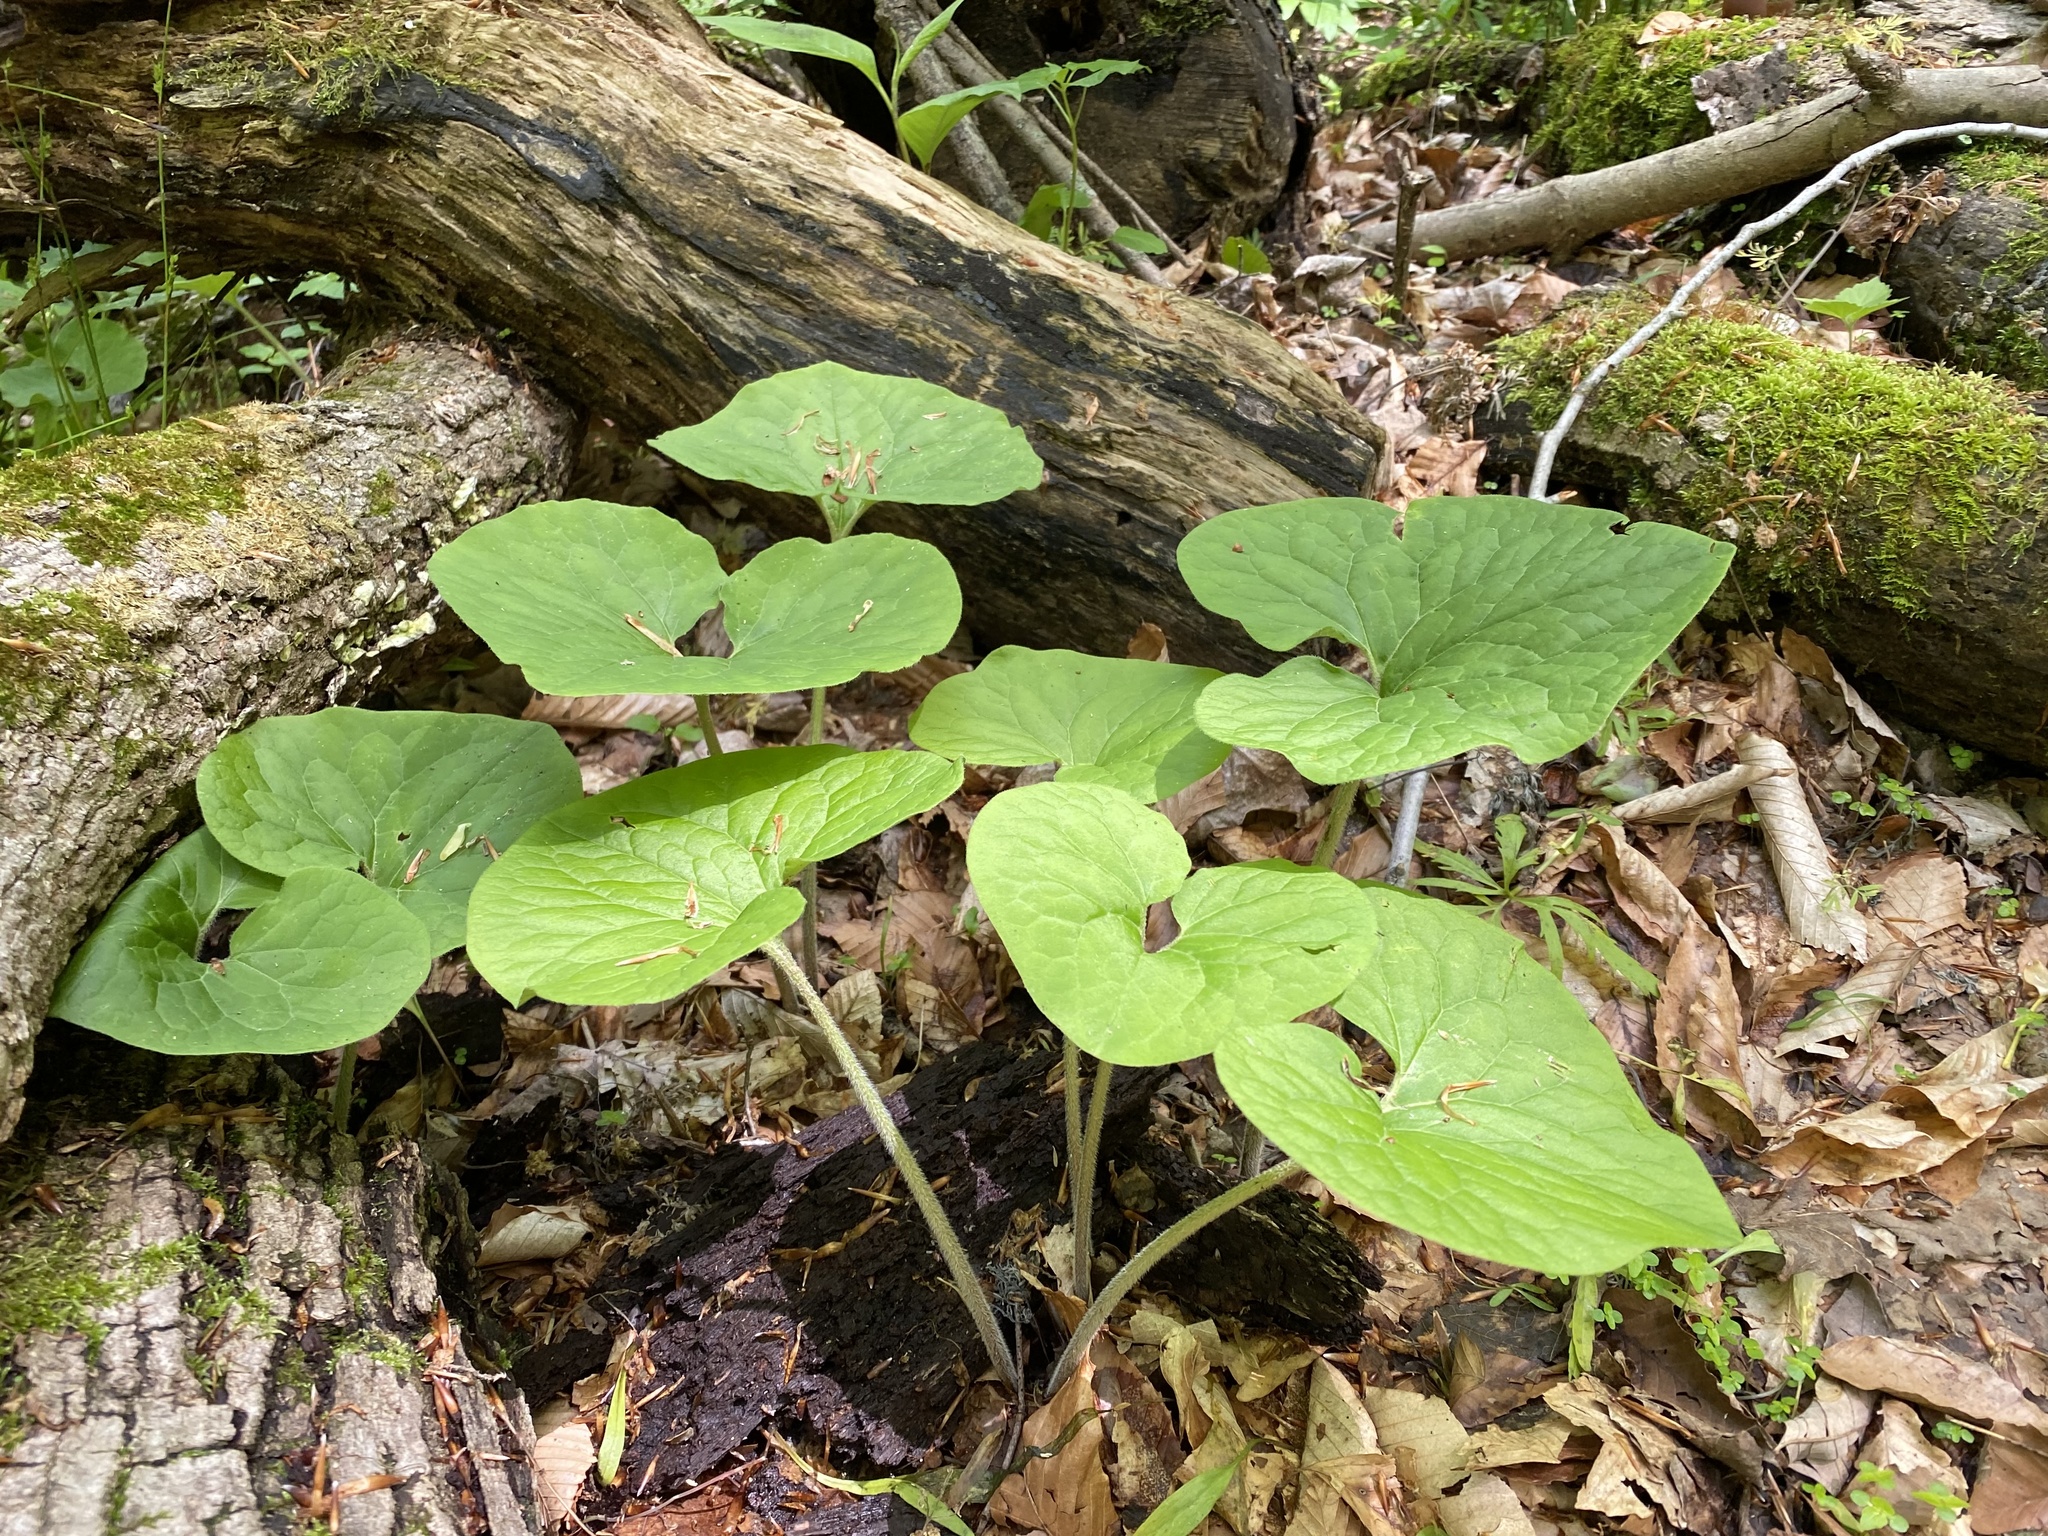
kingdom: Plantae
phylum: Tracheophyta
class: Magnoliopsida
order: Piperales
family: Aristolochiaceae
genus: Asarum
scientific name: Asarum canadense
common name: Wild ginger
